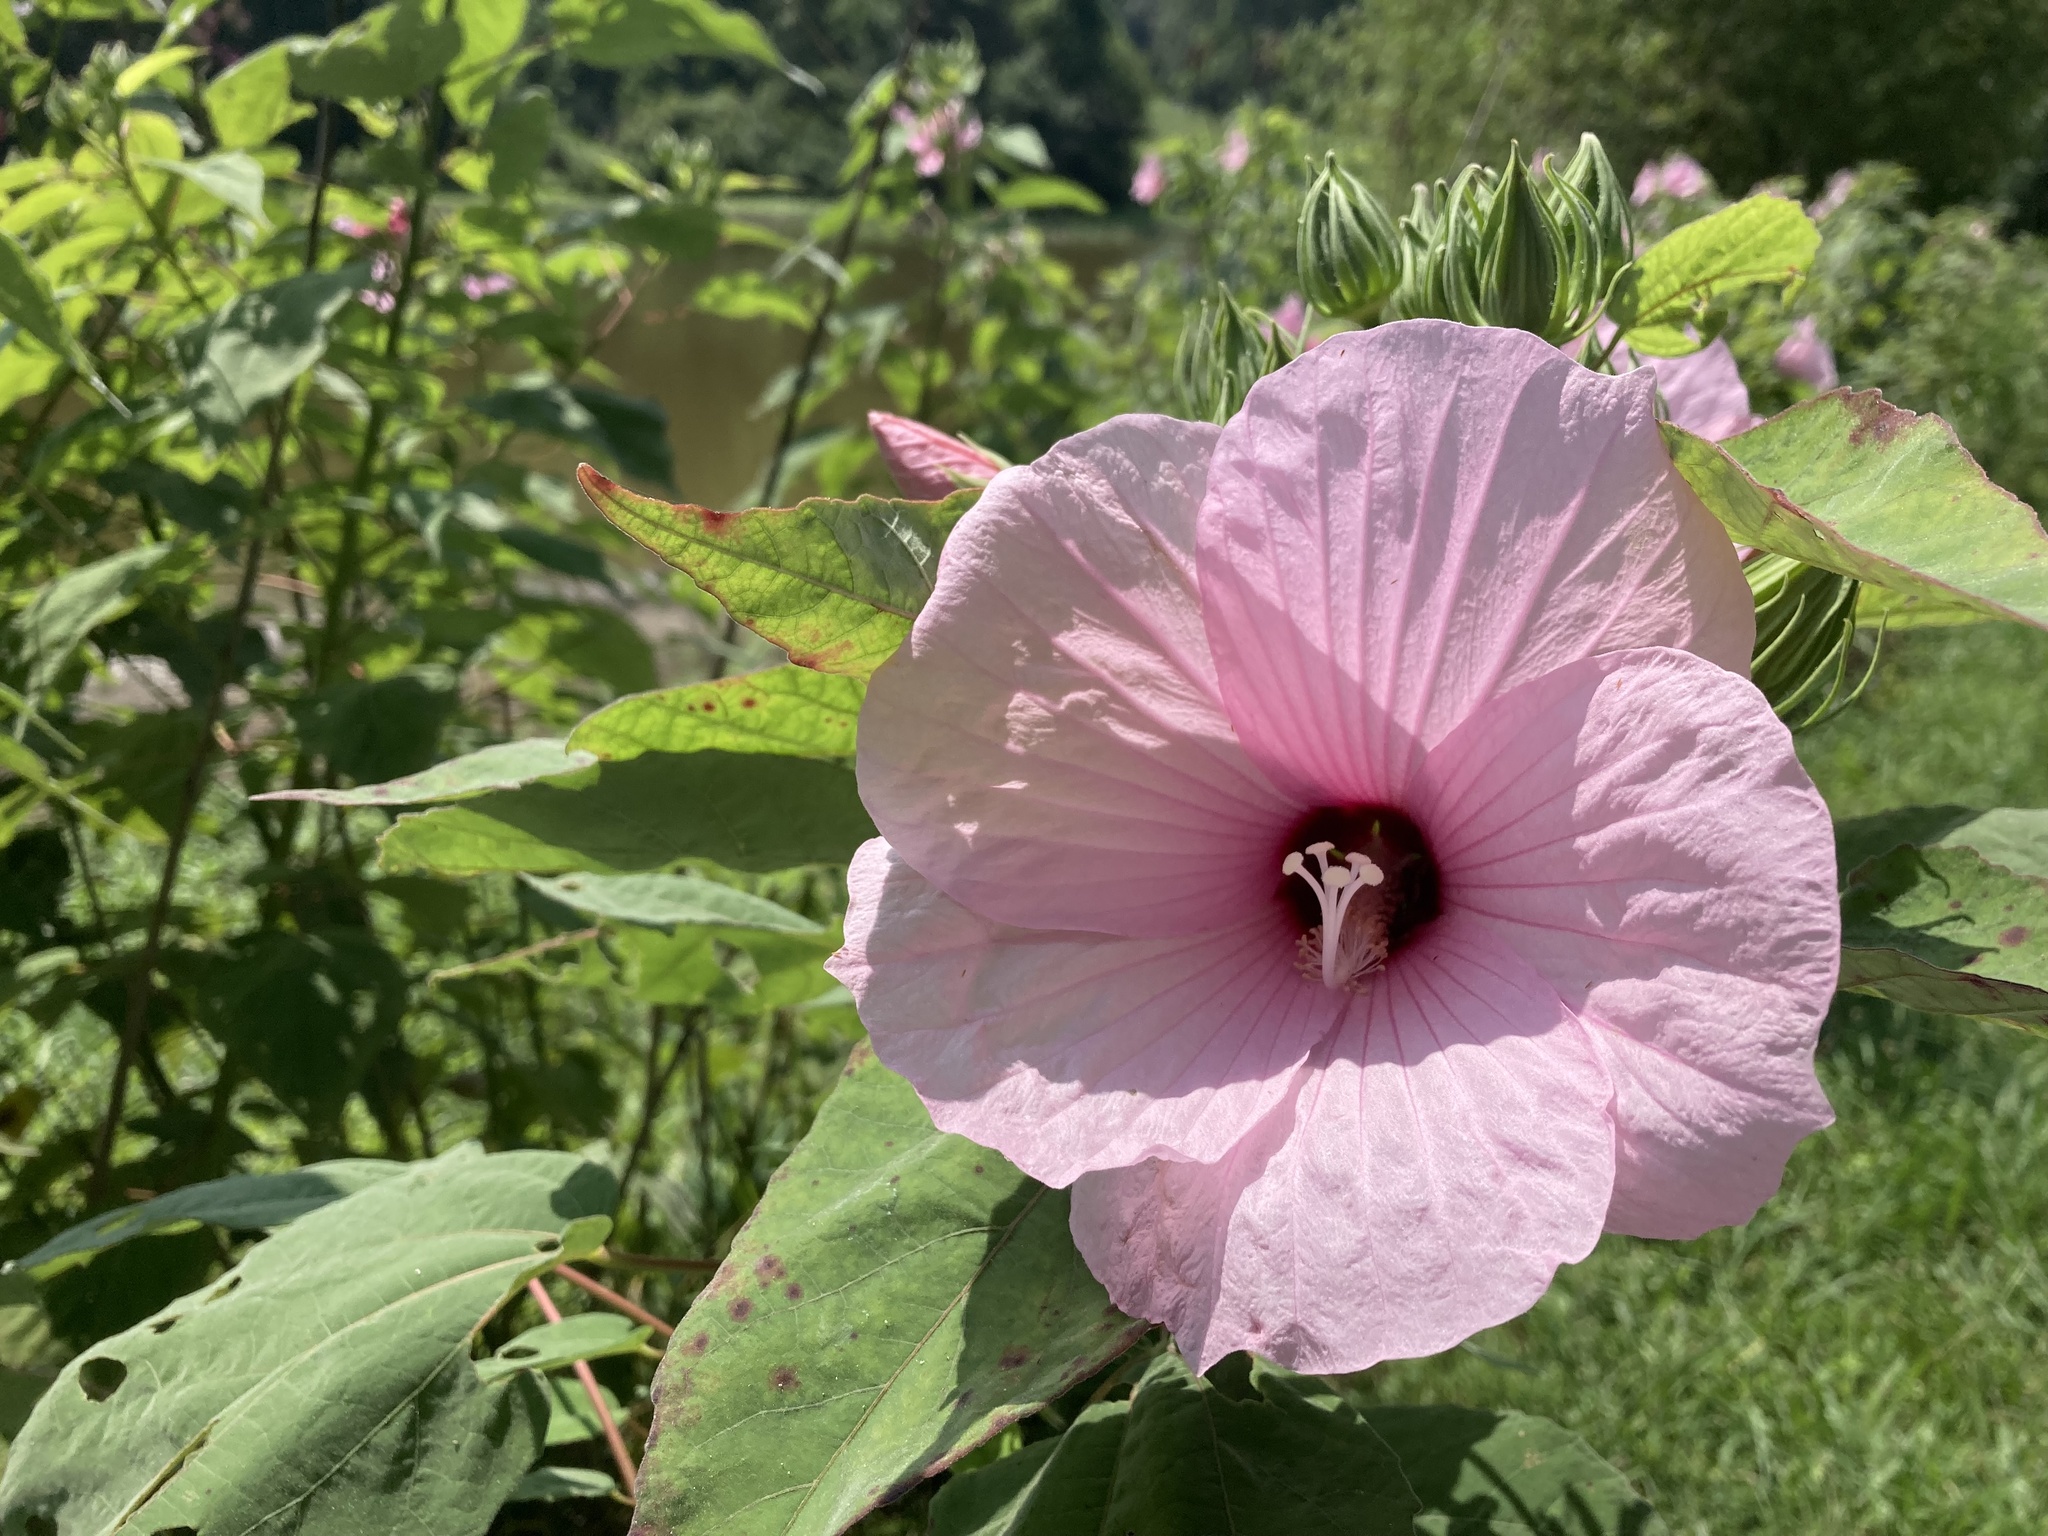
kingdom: Plantae
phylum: Tracheophyta
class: Magnoliopsida
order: Malvales
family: Malvaceae
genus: Hibiscus
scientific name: Hibiscus moscheutos
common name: Common rose-mallow
